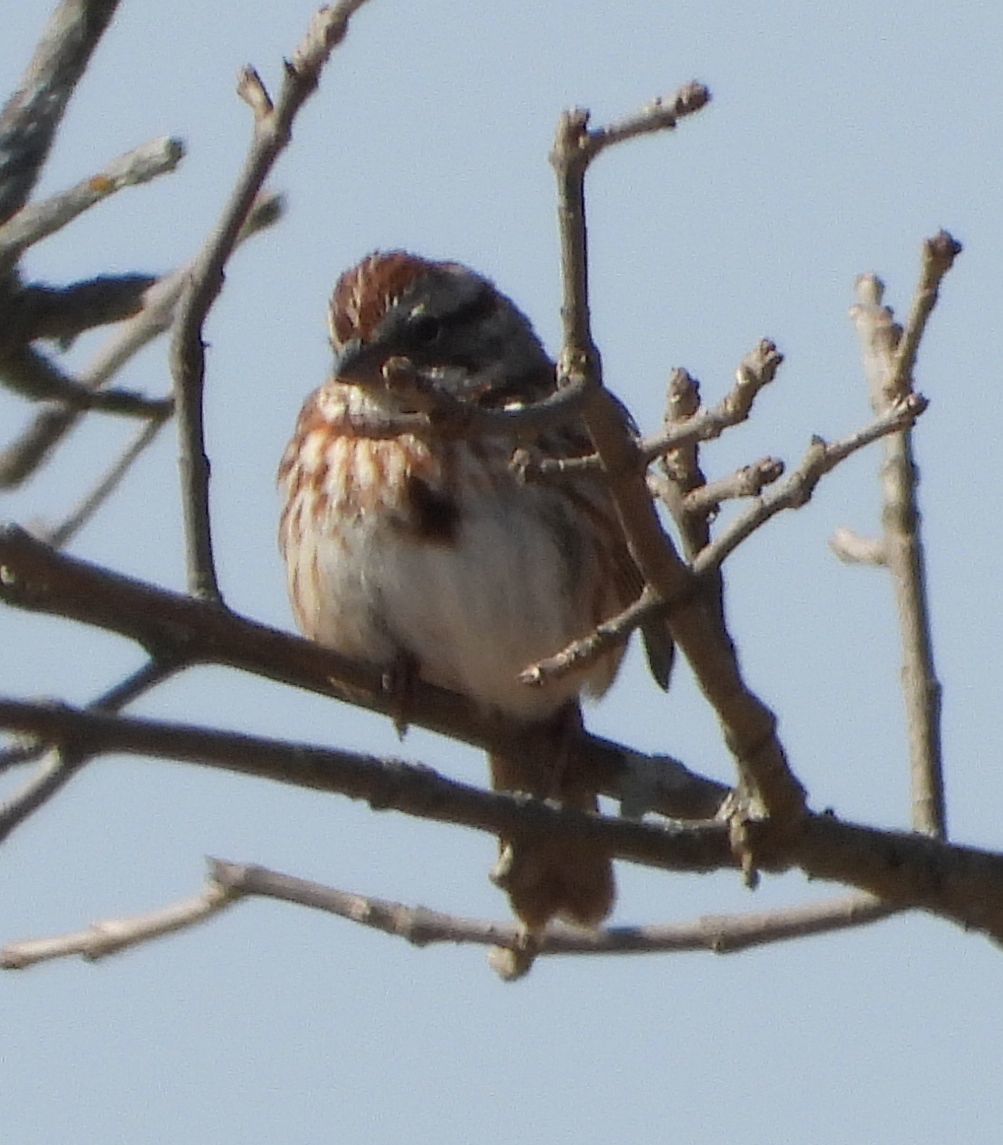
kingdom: Animalia
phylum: Chordata
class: Aves
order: Passeriformes
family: Passerellidae
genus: Melospiza
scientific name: Melospiza melodia
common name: Song sparrow
